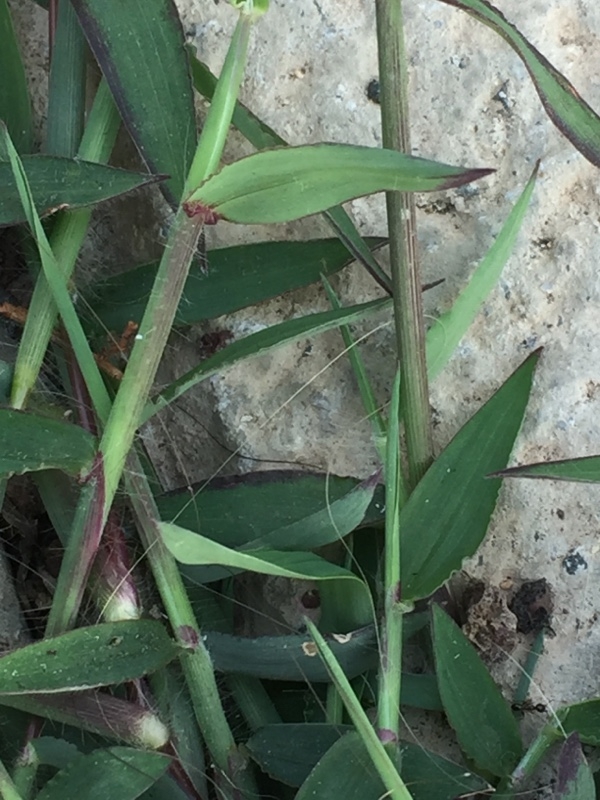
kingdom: Plantae
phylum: Tracheophyta
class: Liliopsida
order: Poales
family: Poaceae
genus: Digitaria
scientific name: Digitaria sanguinalis
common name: Hairy crabgrass
